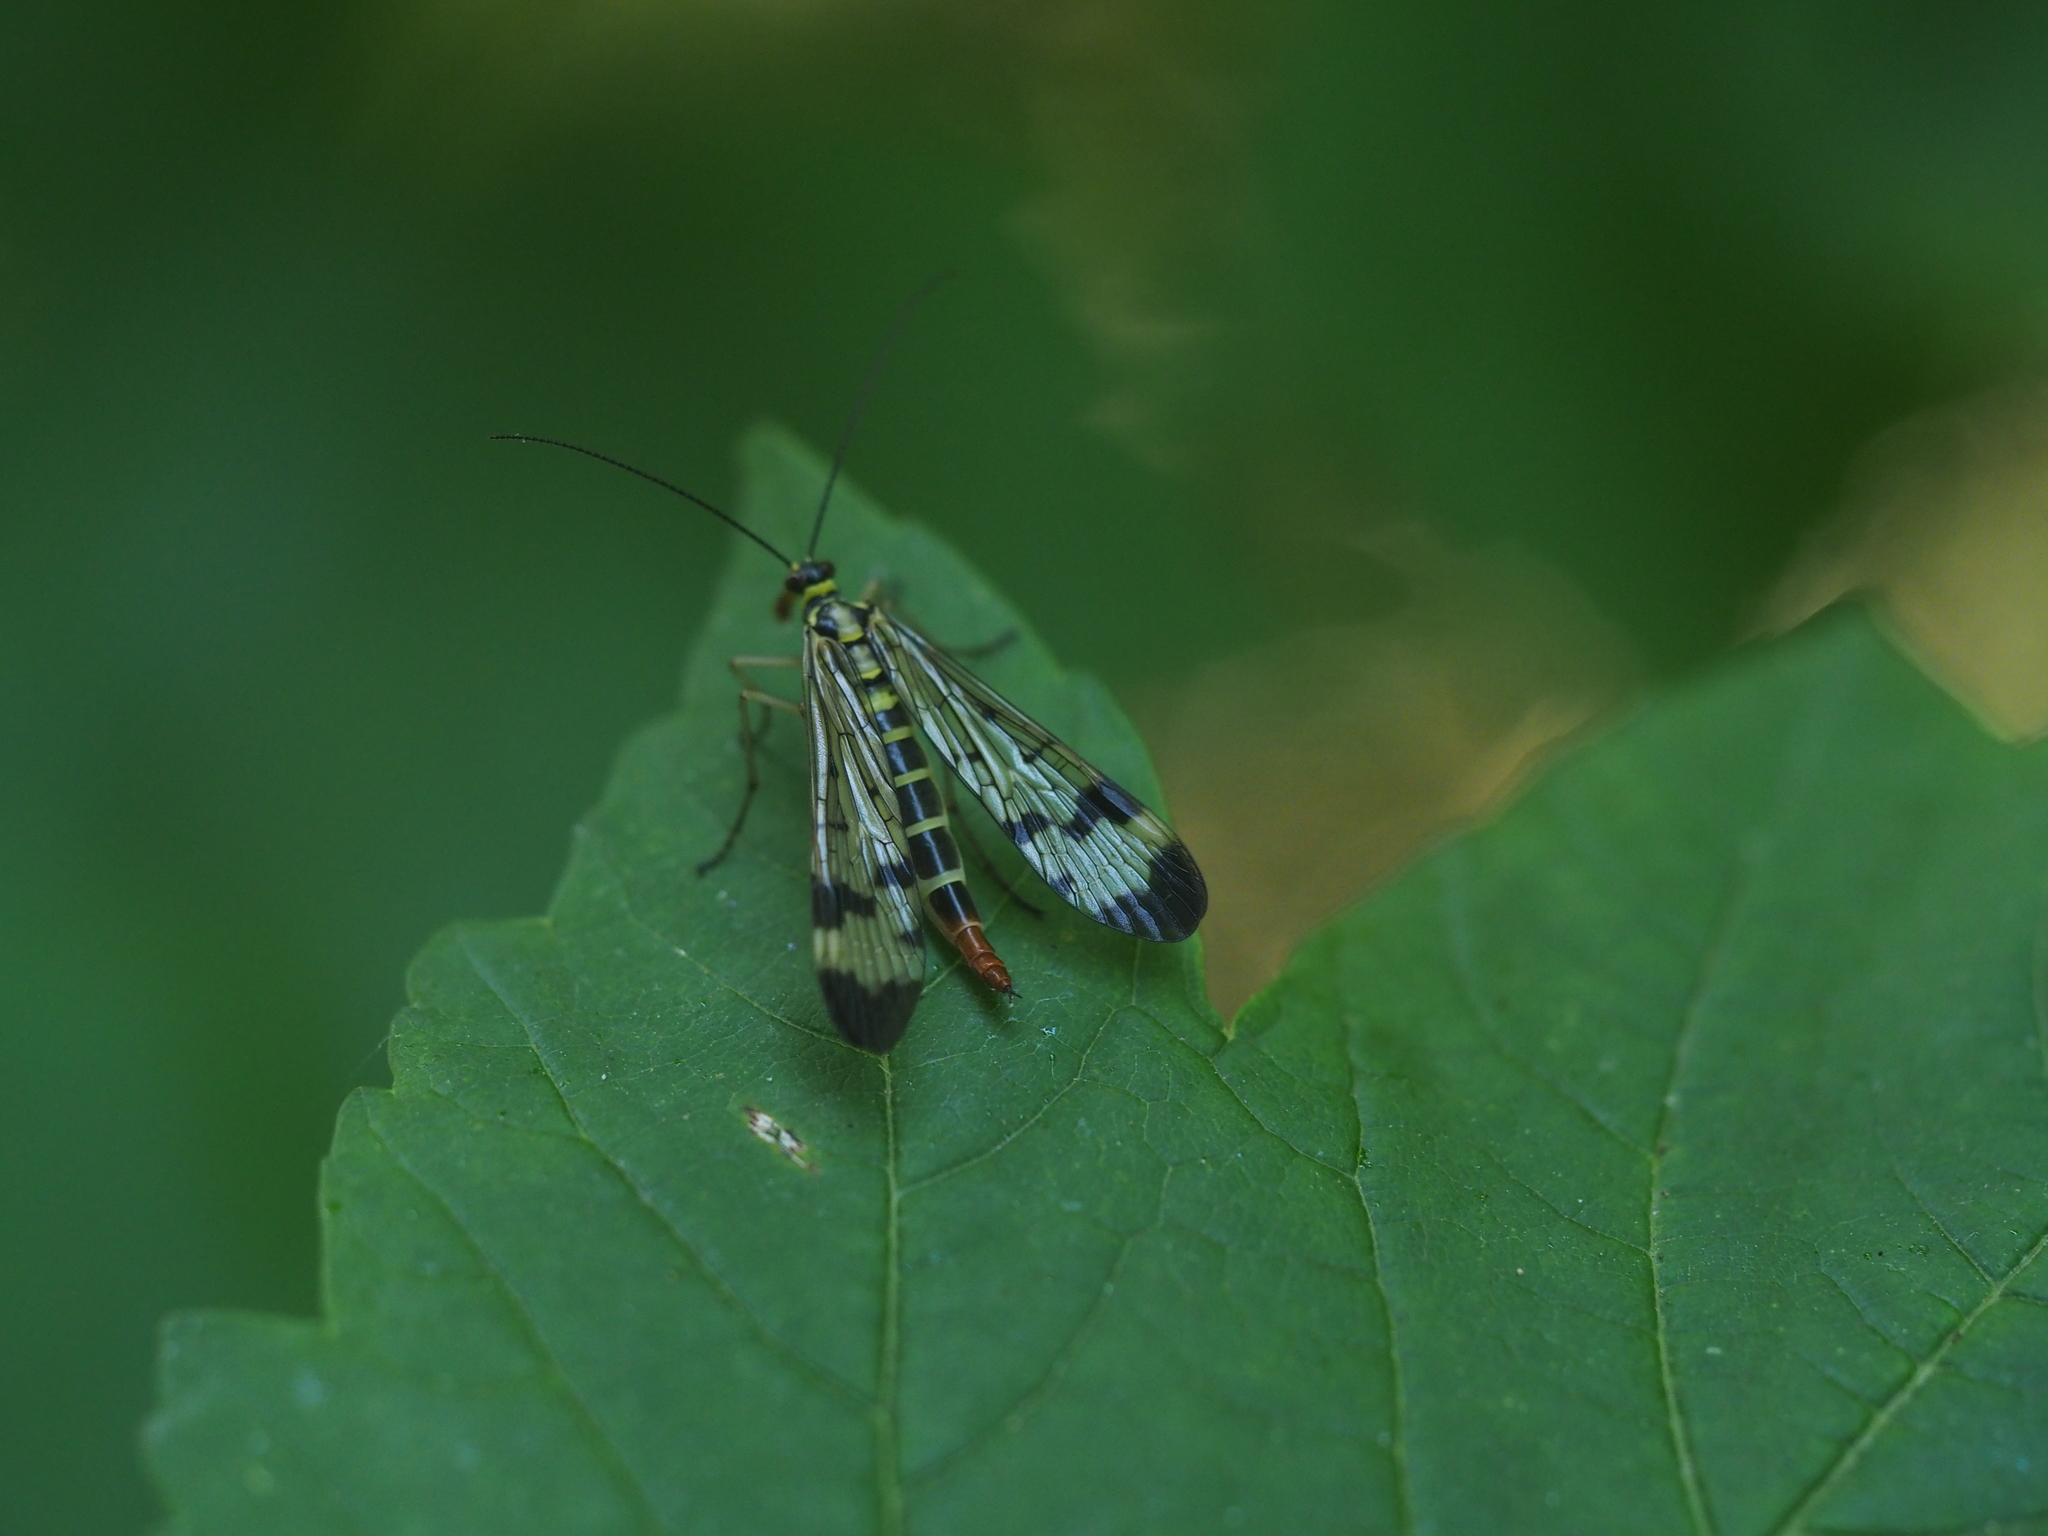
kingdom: Animalia
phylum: Arthropoda
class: Insecta
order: Mecoptera
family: Panorpidae
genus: Panorpa
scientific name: Panorpa communis
